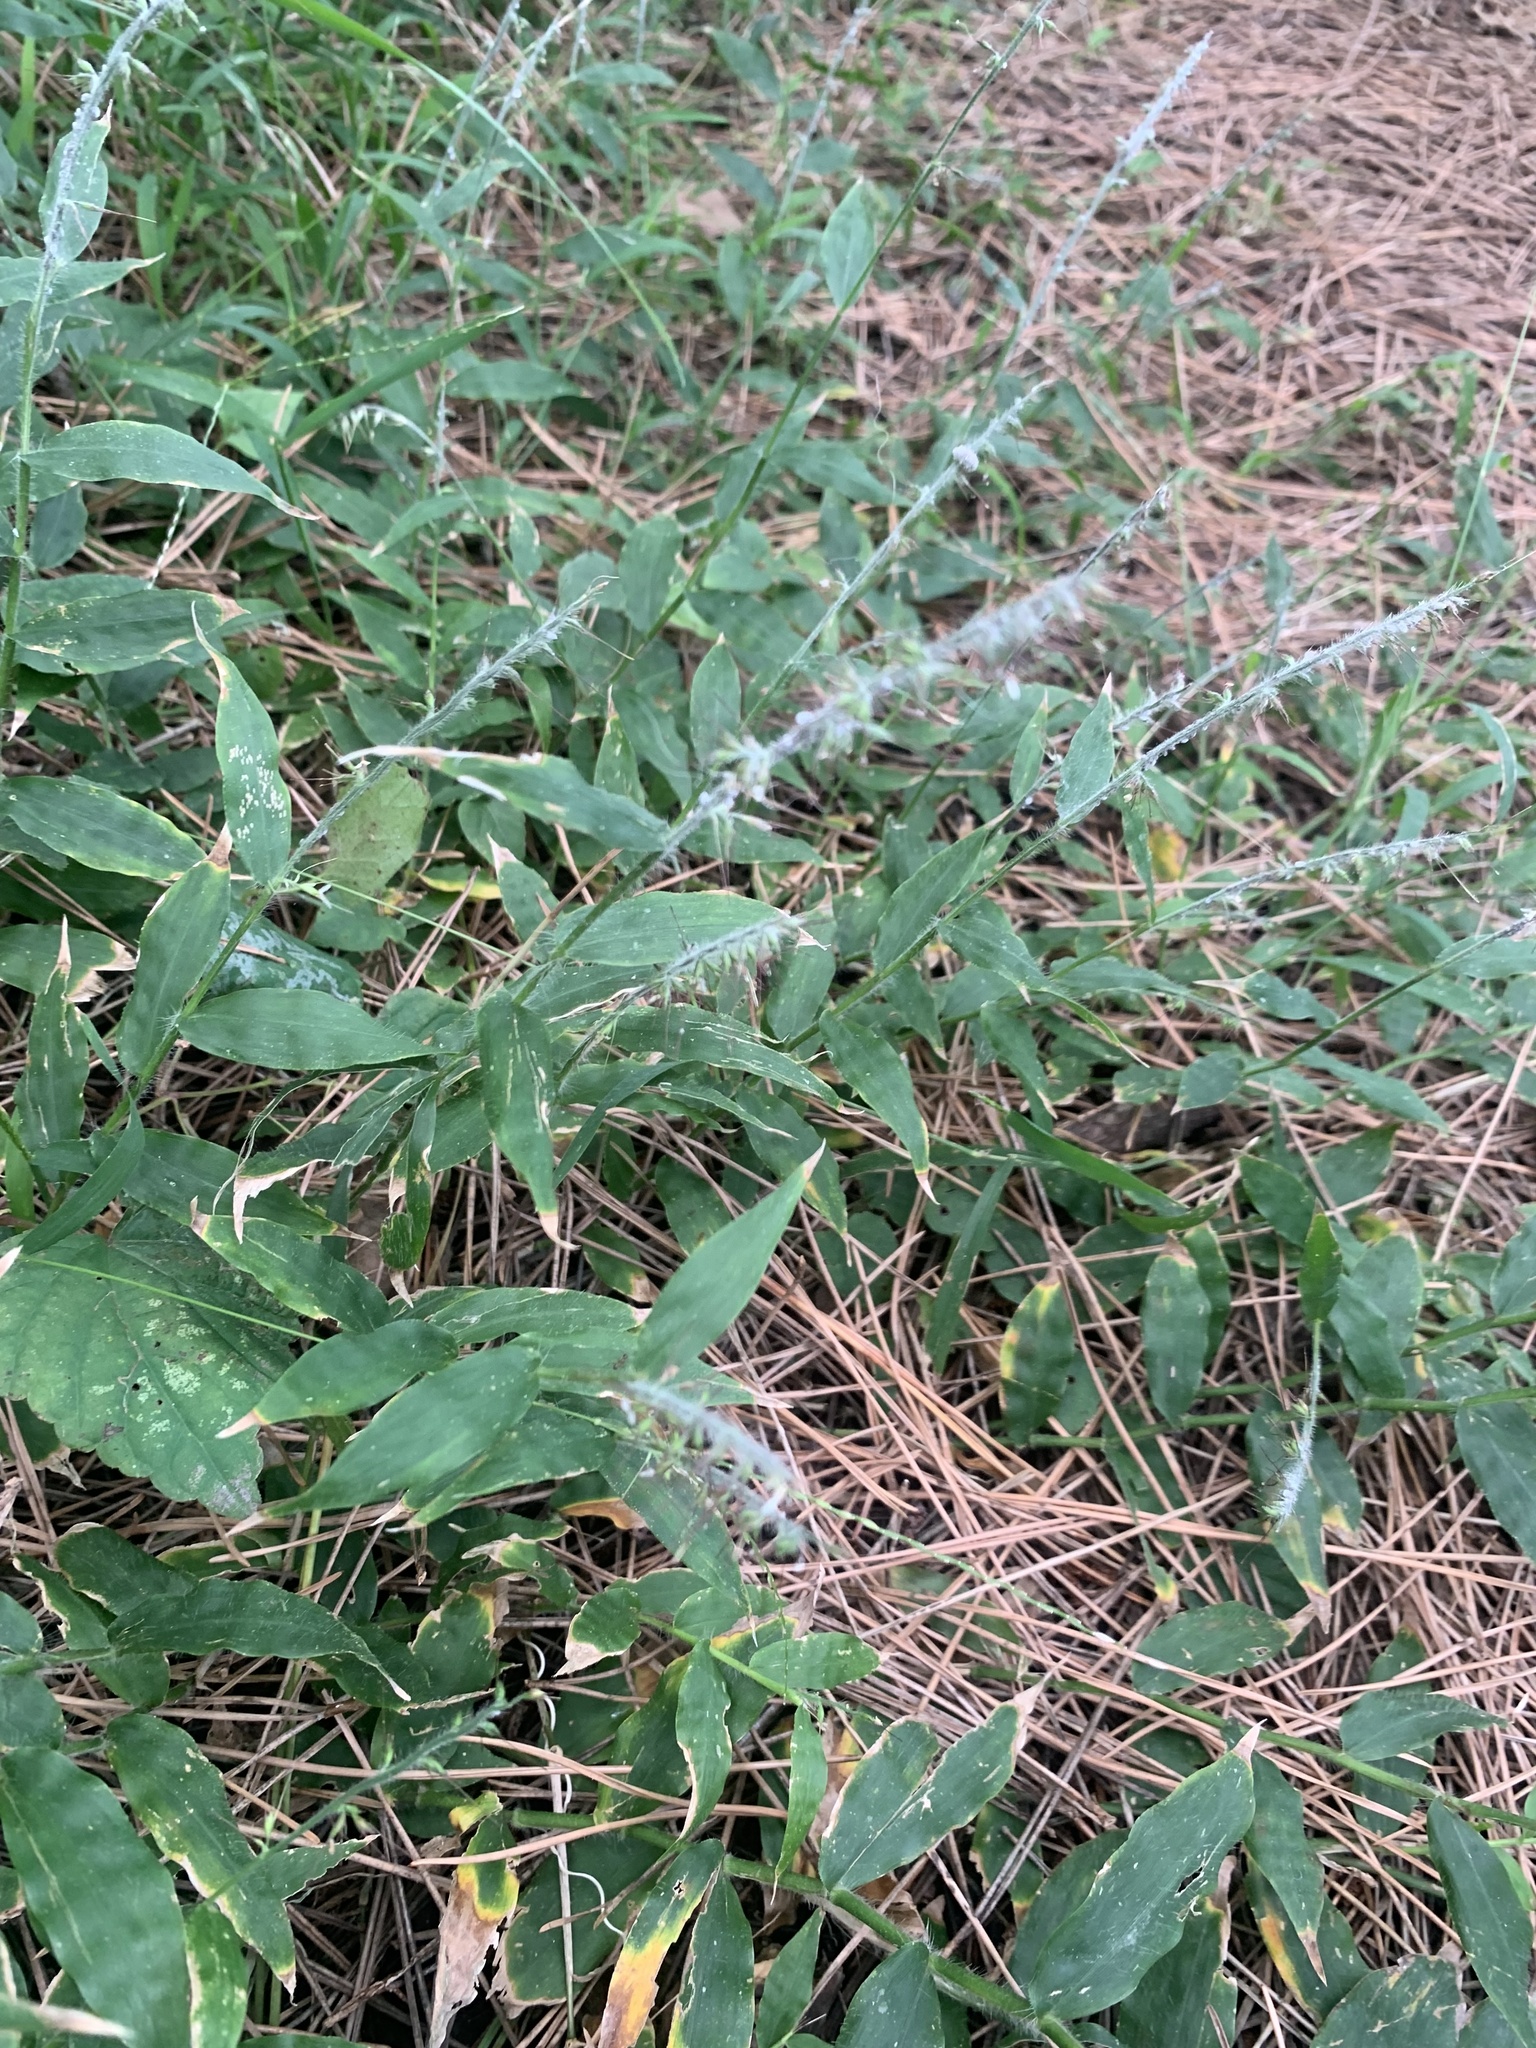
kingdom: Plantae
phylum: Tracheophyta
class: Liliopsida
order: Poales
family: Poaceae
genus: Oplismenus
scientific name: Oplismenus undulatifolius
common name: Wavyleaf basketgrass
